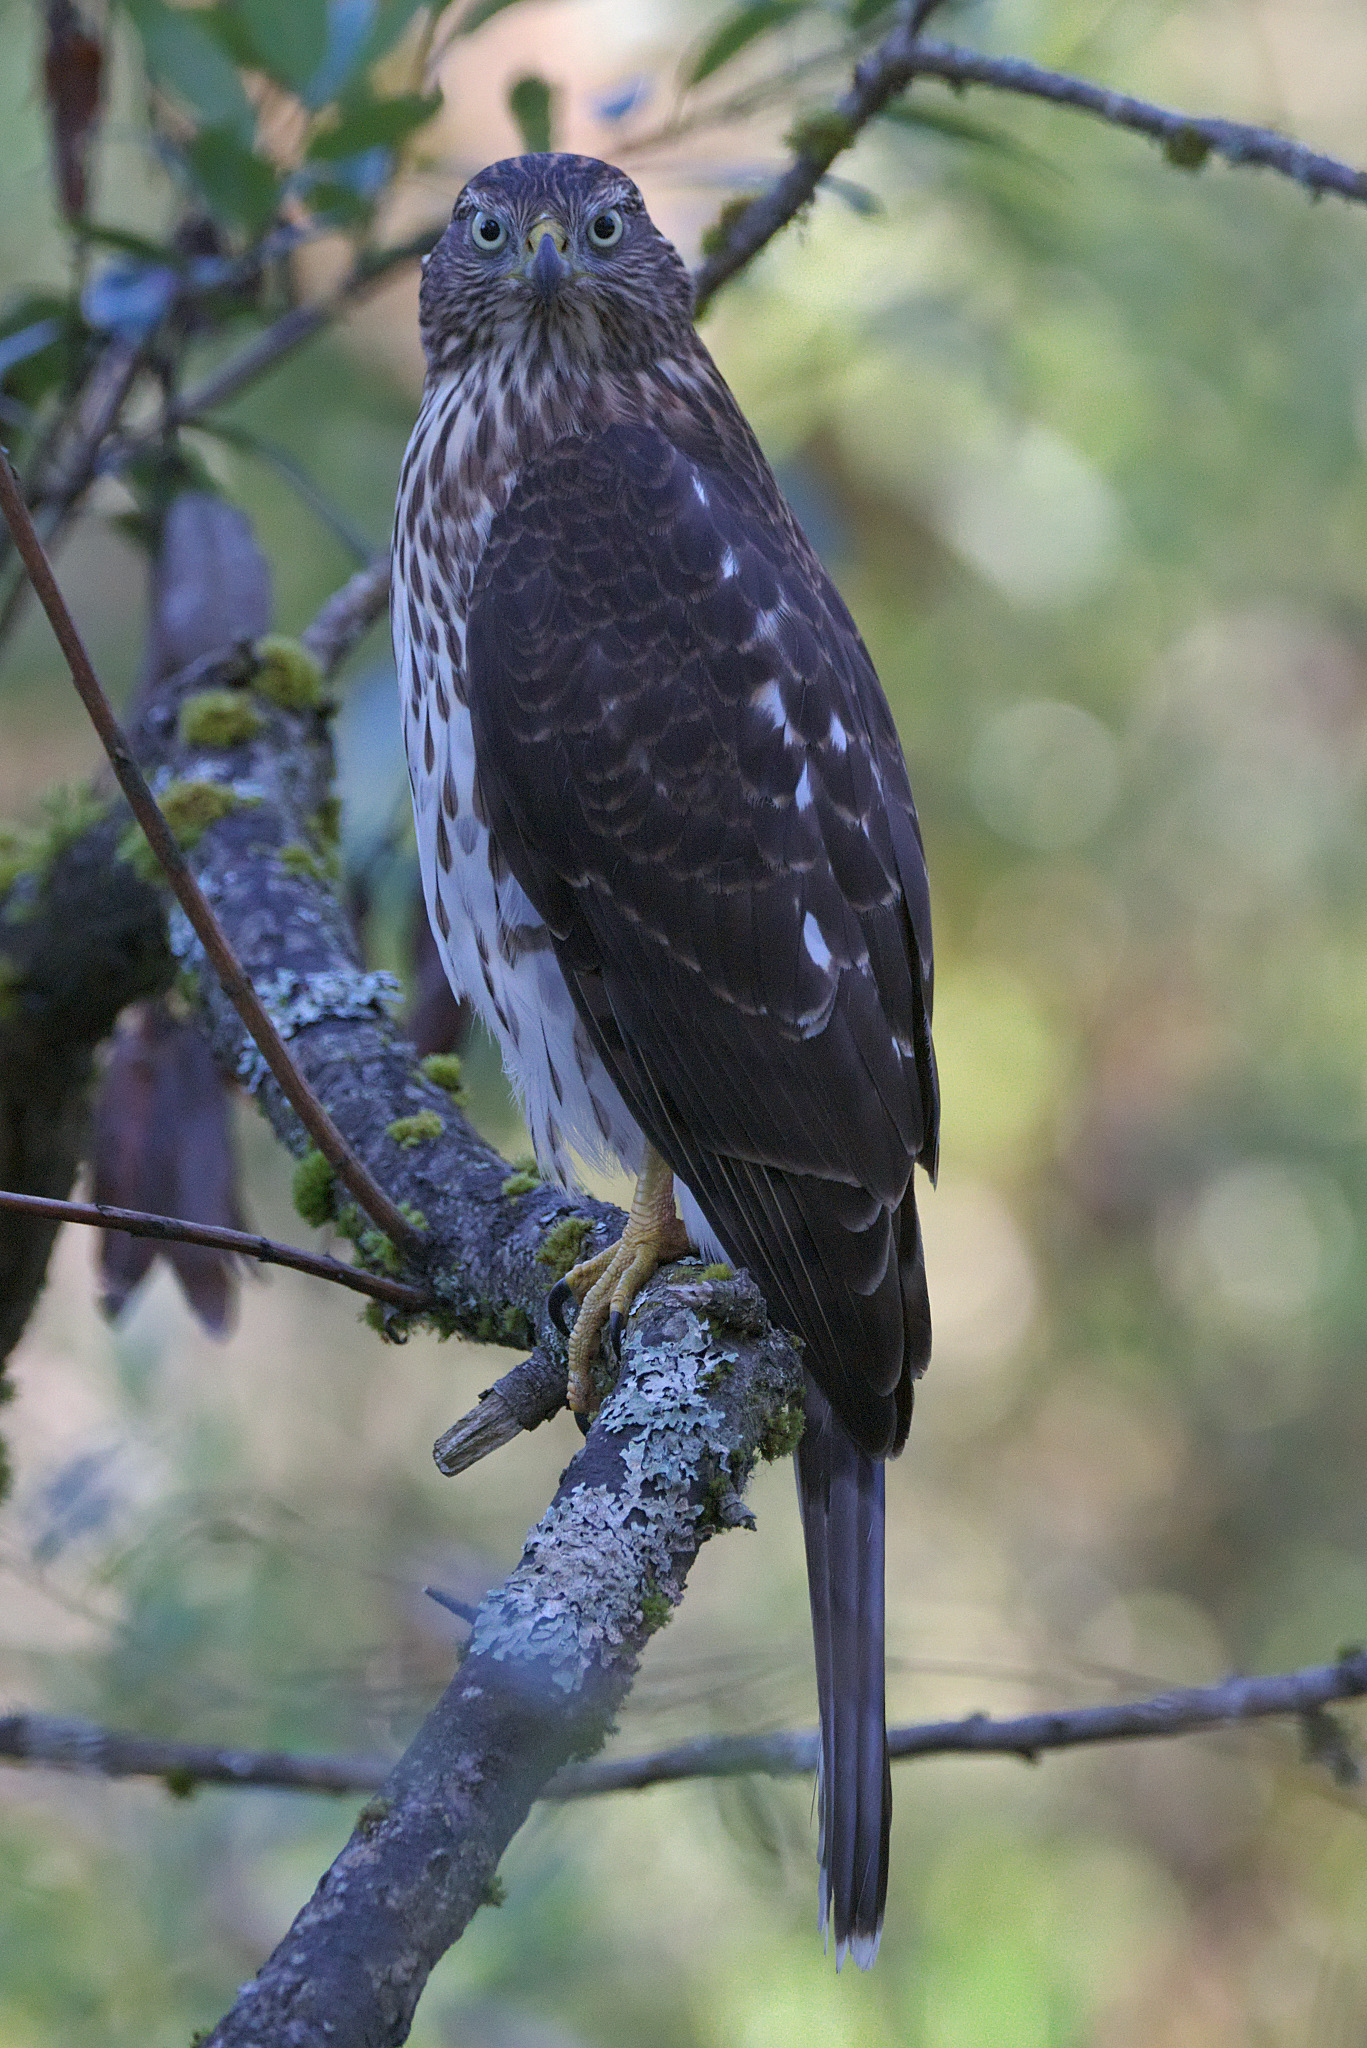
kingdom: Animalia
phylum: Chordata
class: Aves
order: Accipitriformes
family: Accipitridae
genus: Accipiter
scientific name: Accipiter cooperii
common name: Cooper's hawk
